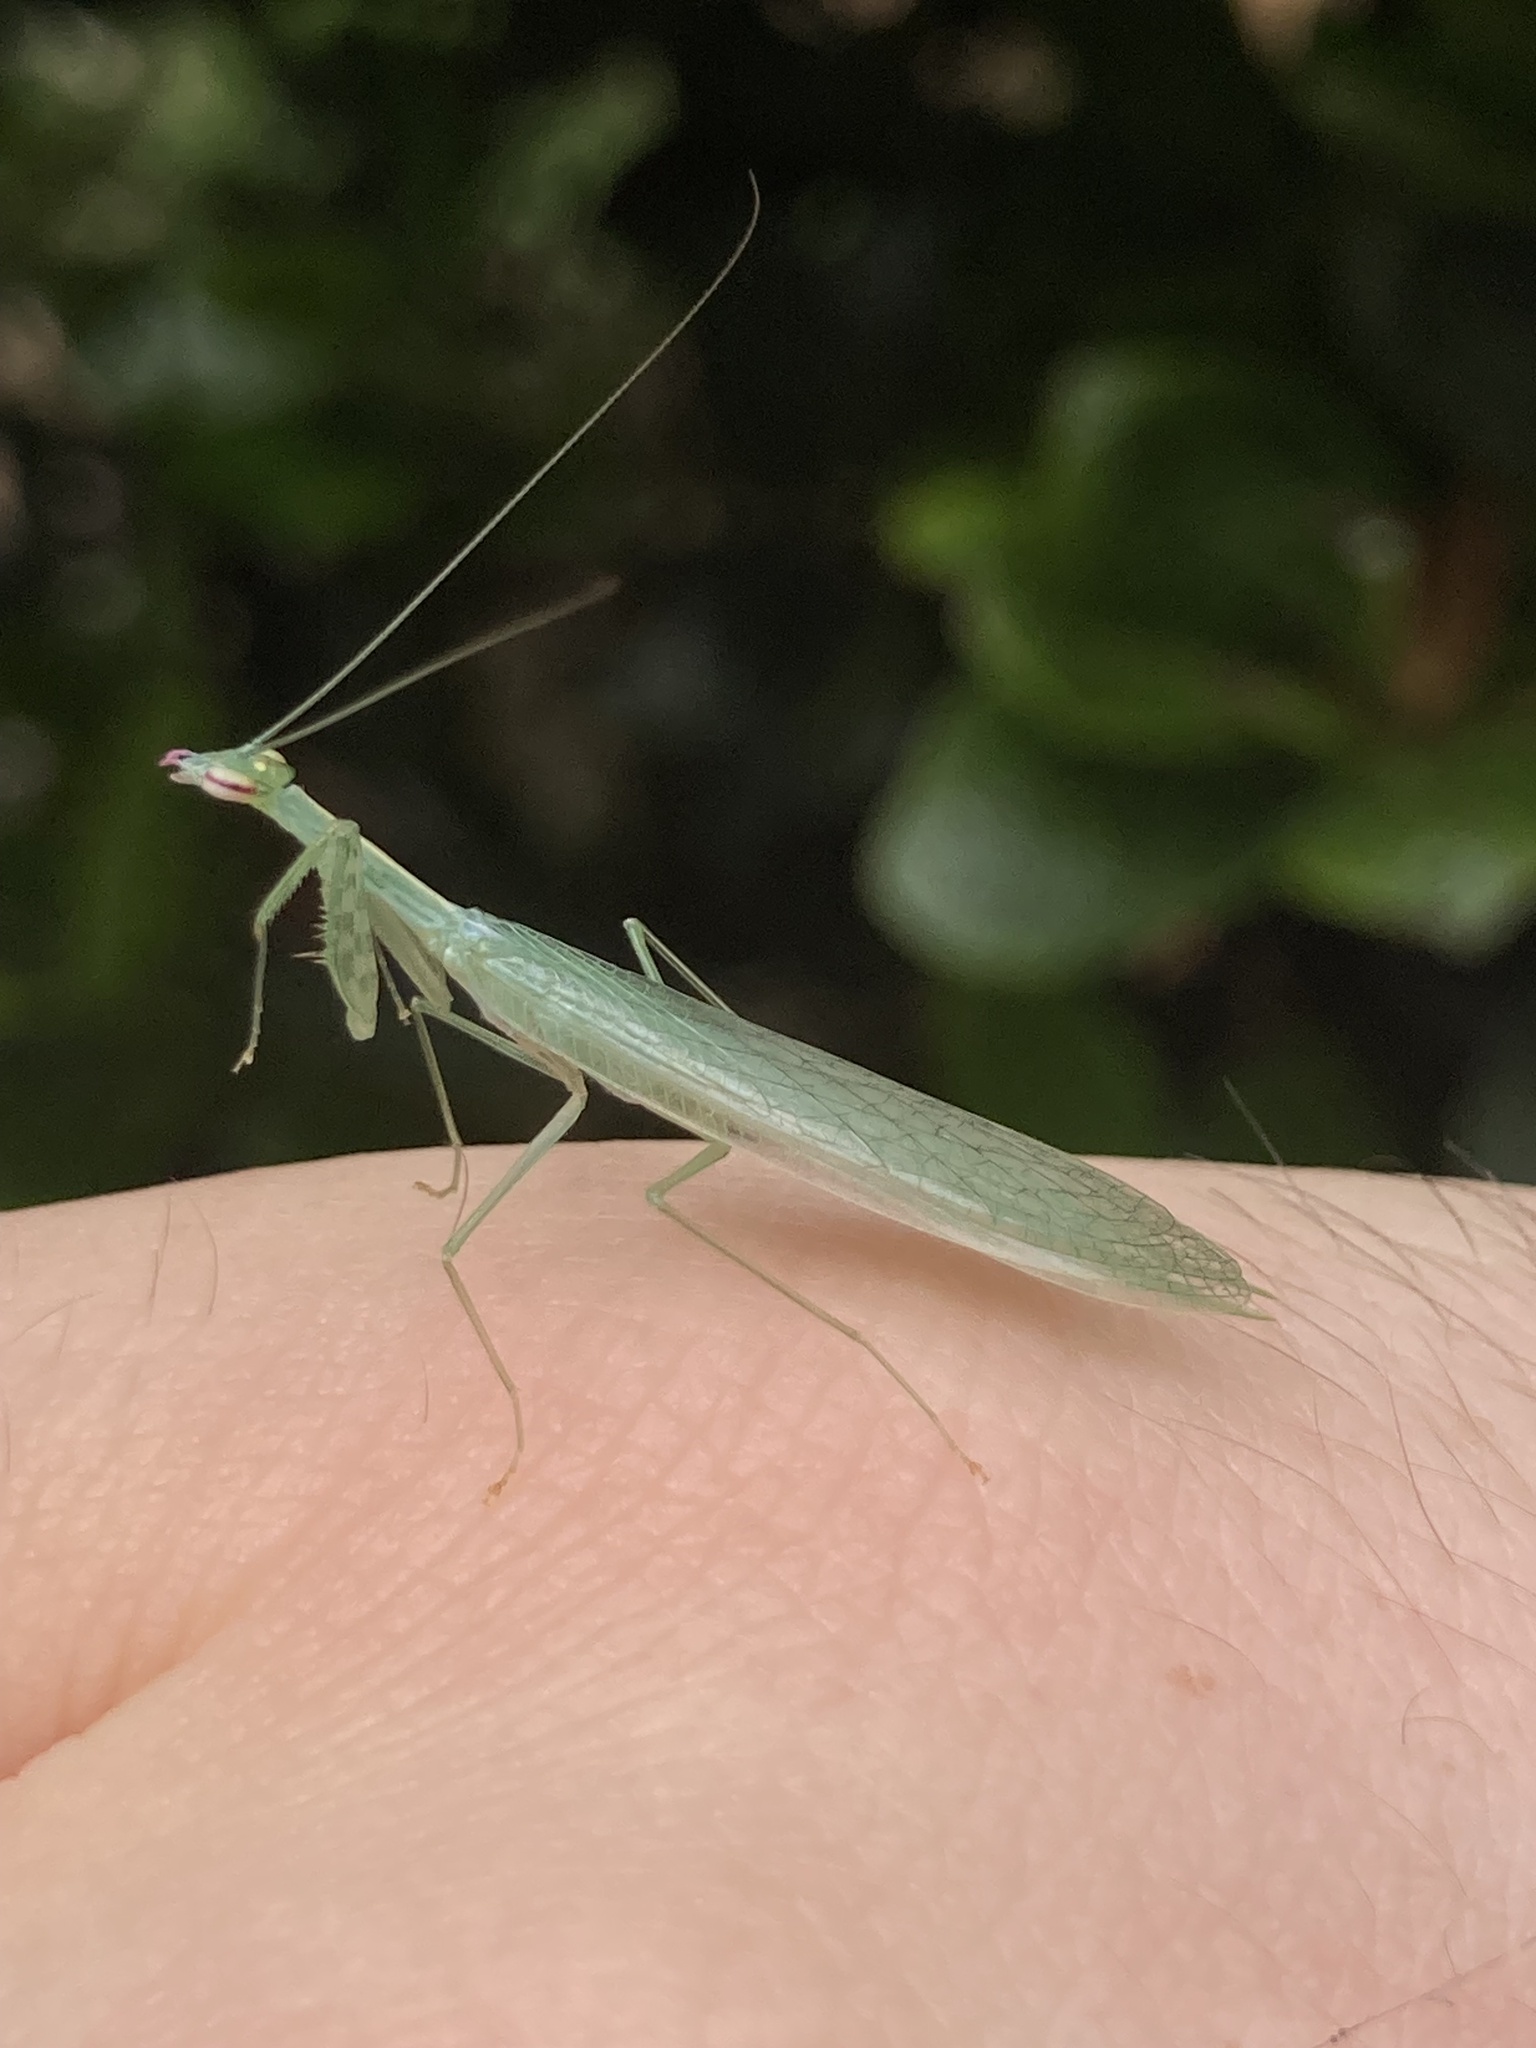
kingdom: Animalia
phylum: Arthropoda
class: Insecta
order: Mantodea
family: Nanomantidae
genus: Kongobatha
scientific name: Kongobatha diademata
